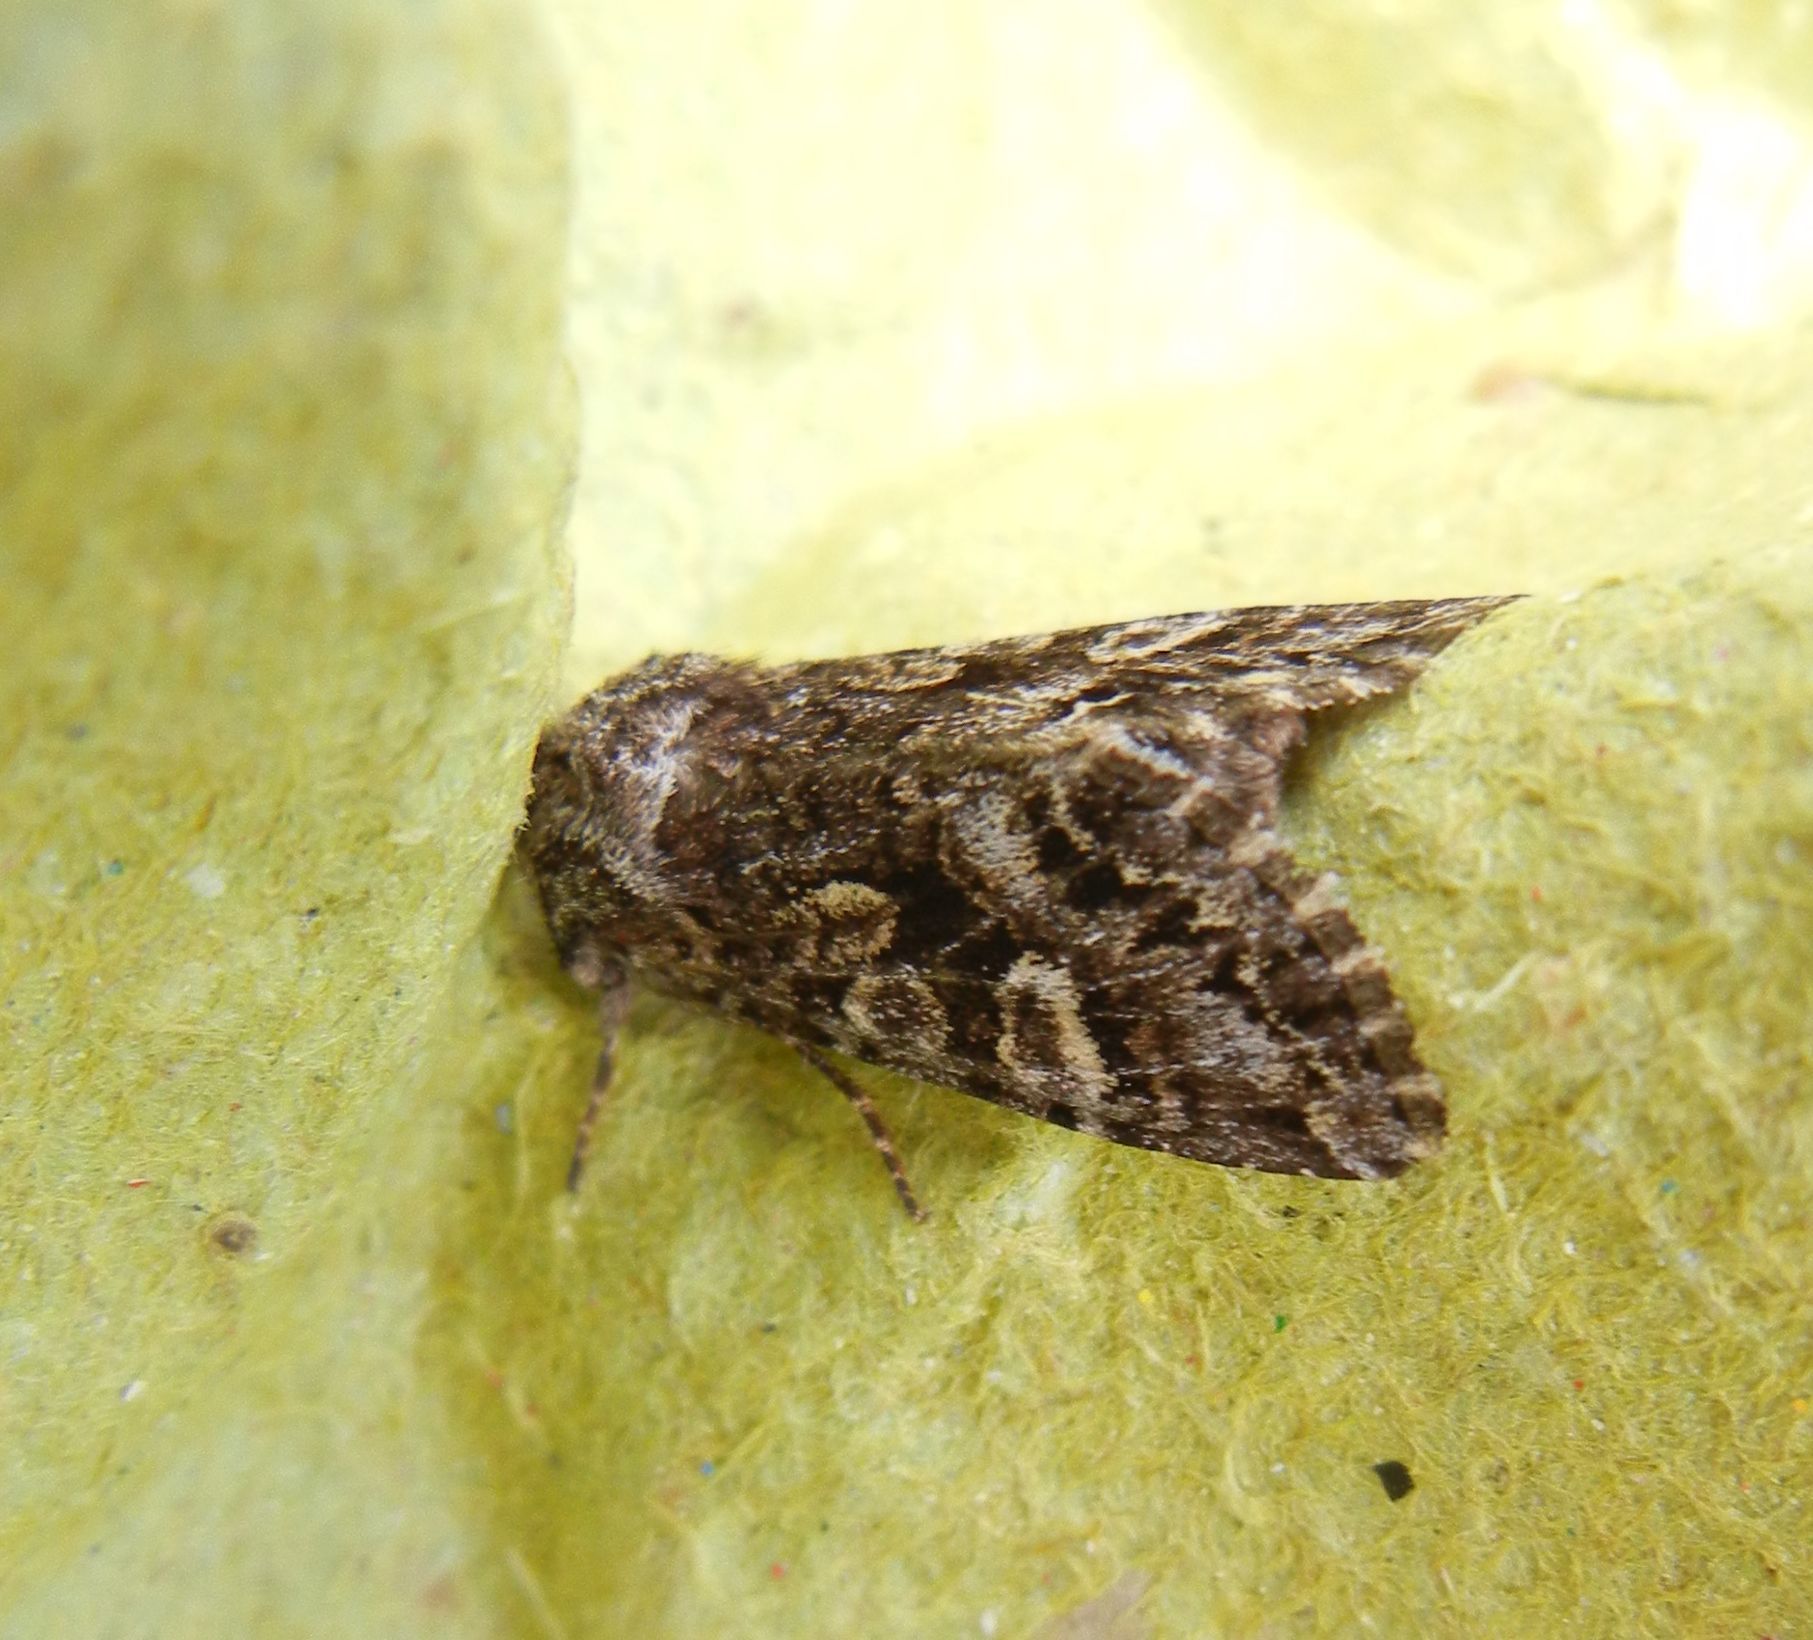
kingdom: Animalia
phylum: Arthropoda
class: Insecta
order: Lepidoptera
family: Noctuidae
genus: Papestra
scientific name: Papestra biren
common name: Glaucous shears
